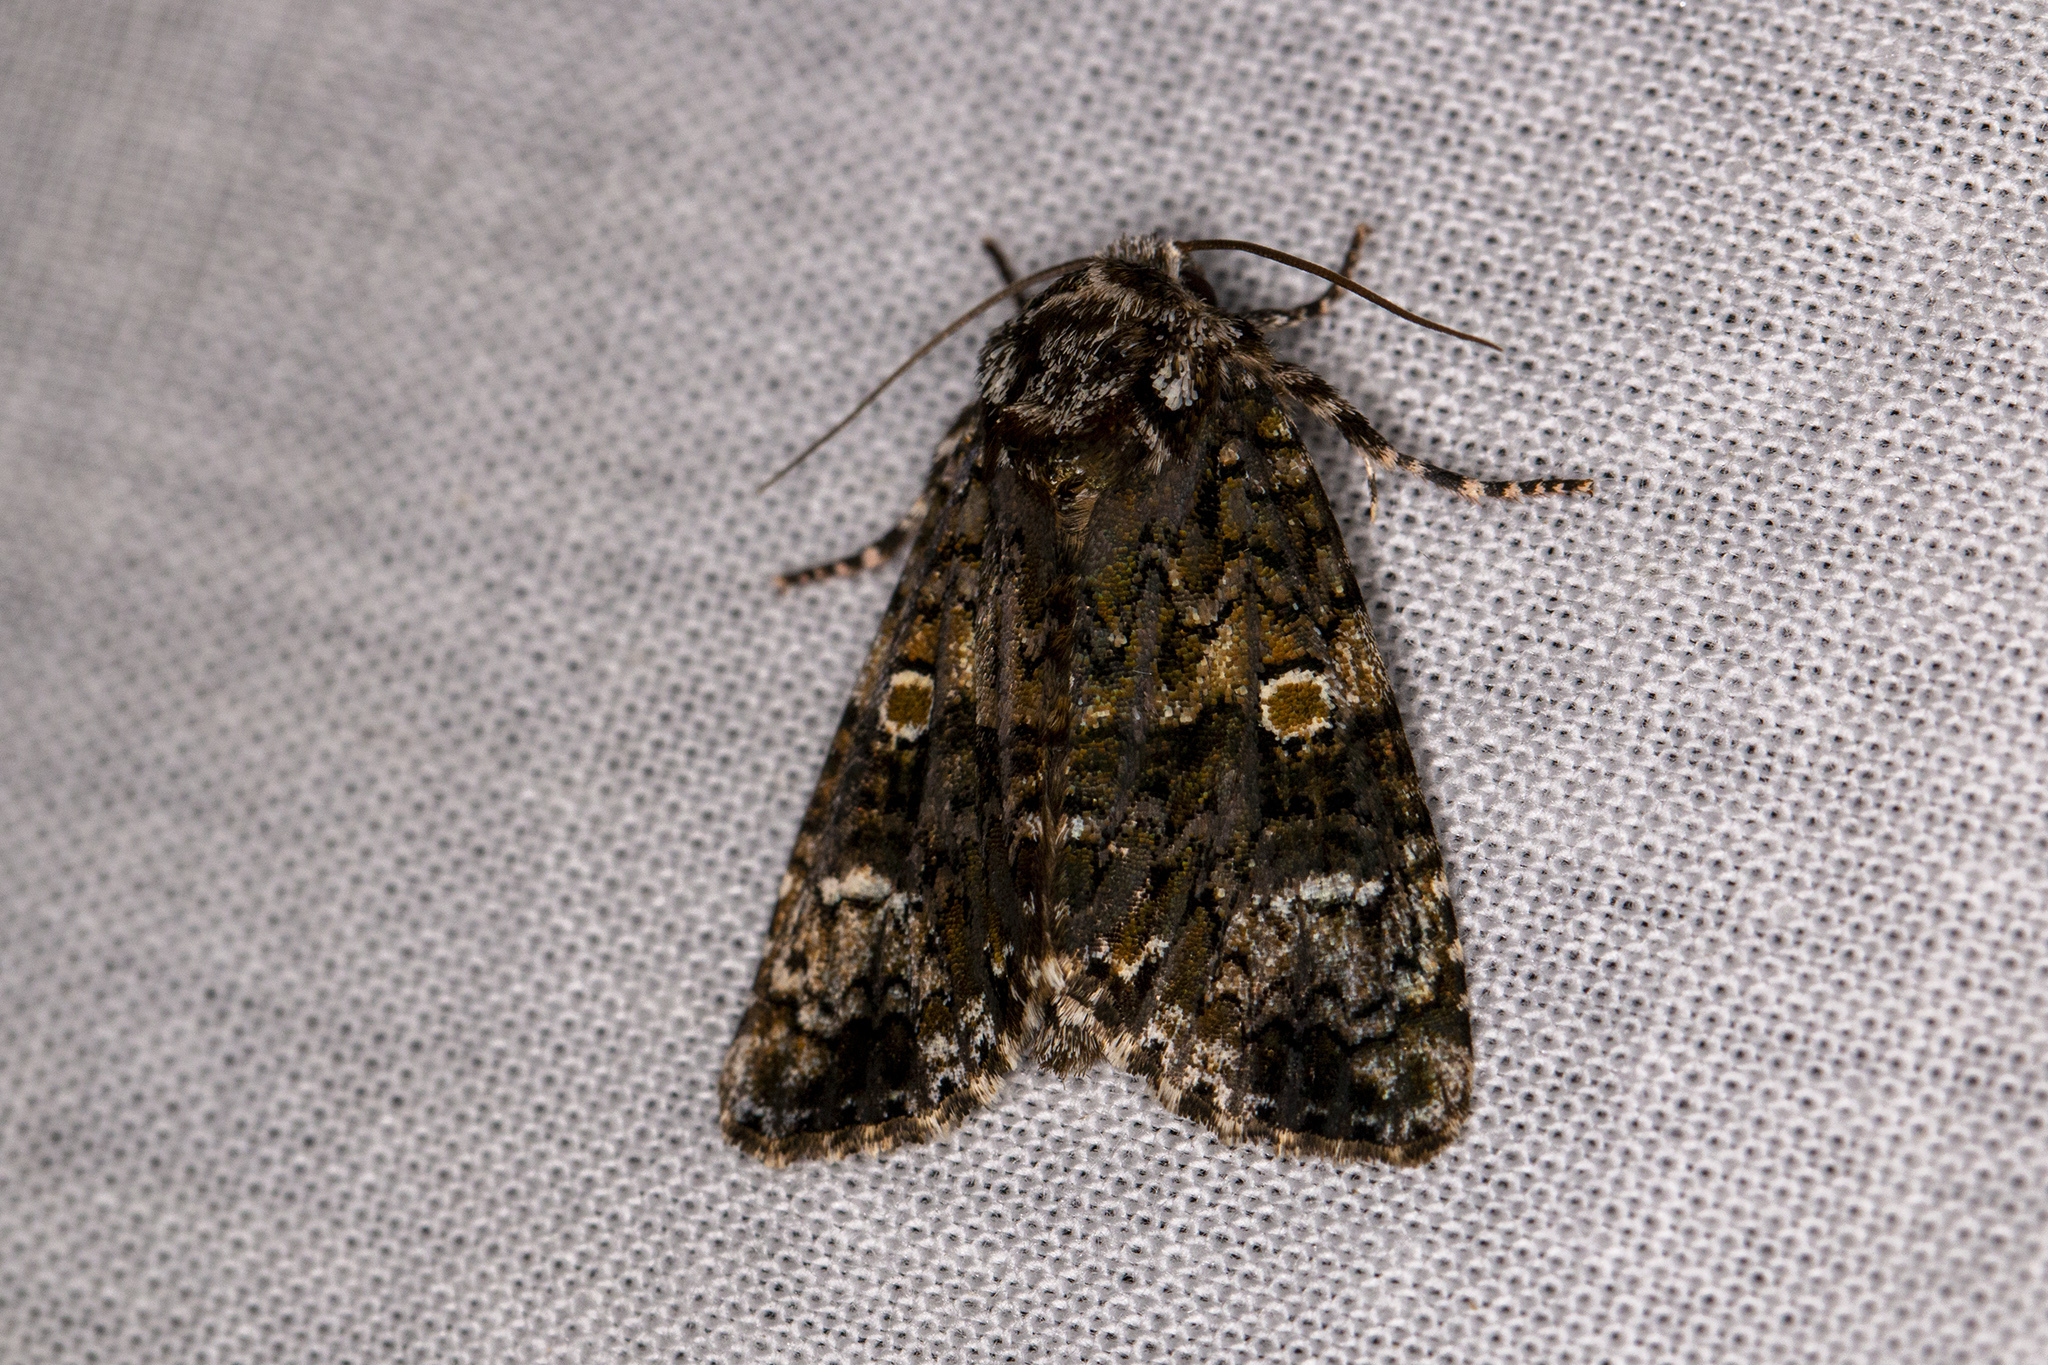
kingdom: Animalia
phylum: Arthropoda
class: Insecta
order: Lepidoptera
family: Noctuidae
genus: Craniophora
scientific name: Craniophora ligustri
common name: Coronet
